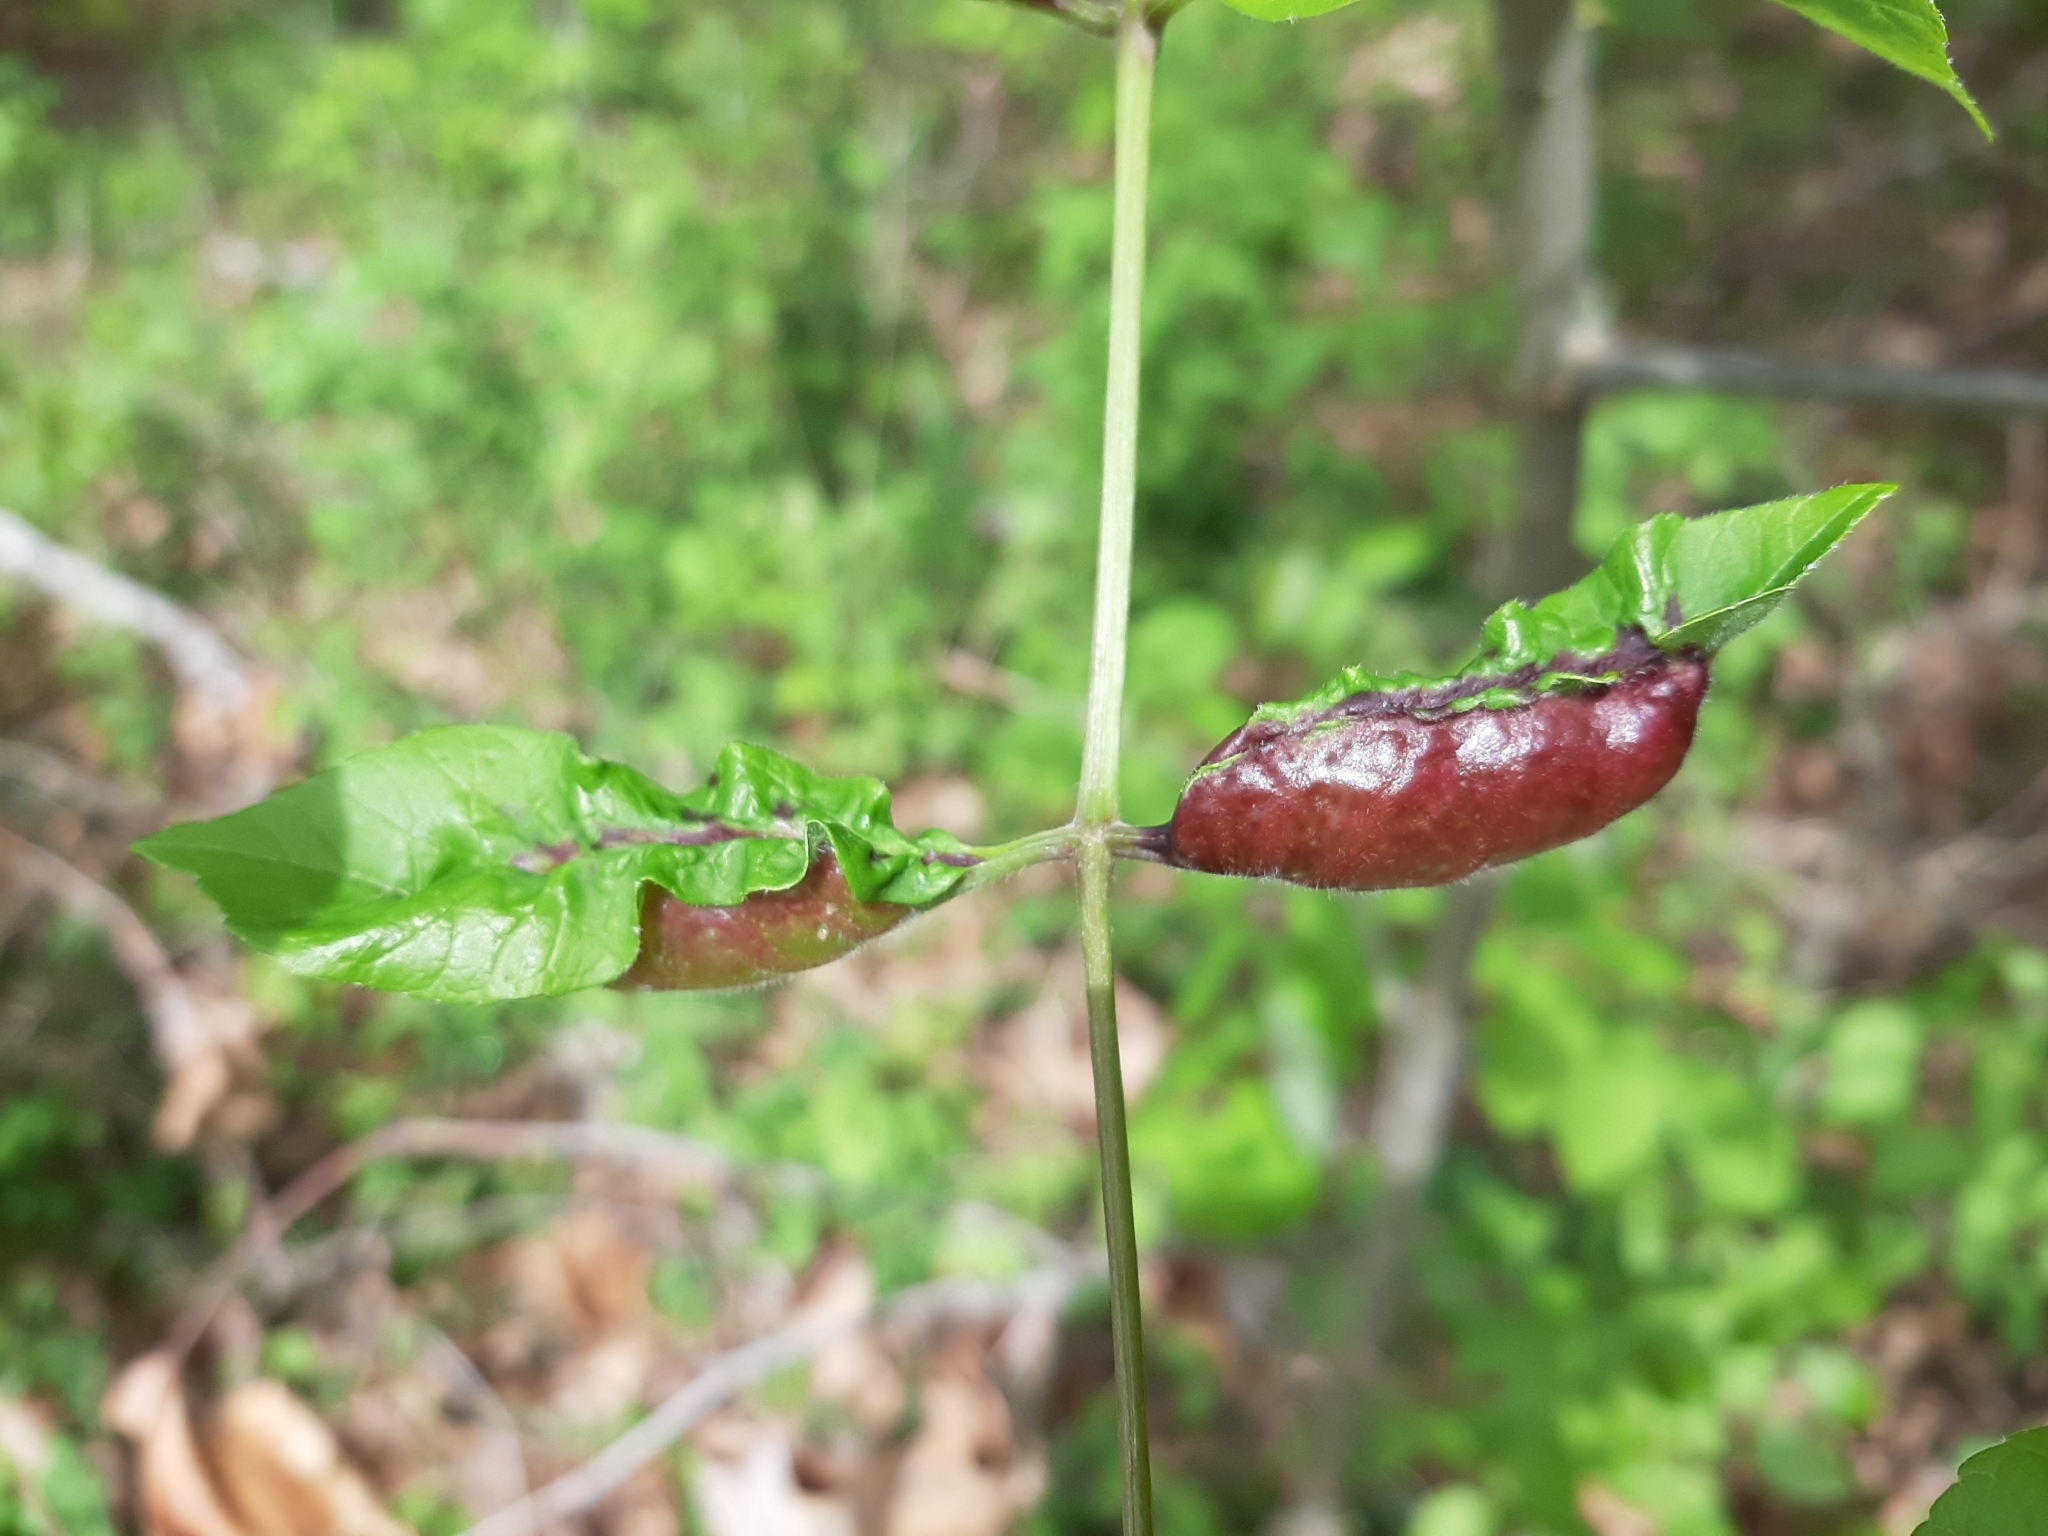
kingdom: Animalia
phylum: Arthropoda
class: Insecta
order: Diptera
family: Cecidomyiidae
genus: Dasineura
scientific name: Dasineura tumidosae
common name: Ash petiole gall midge
